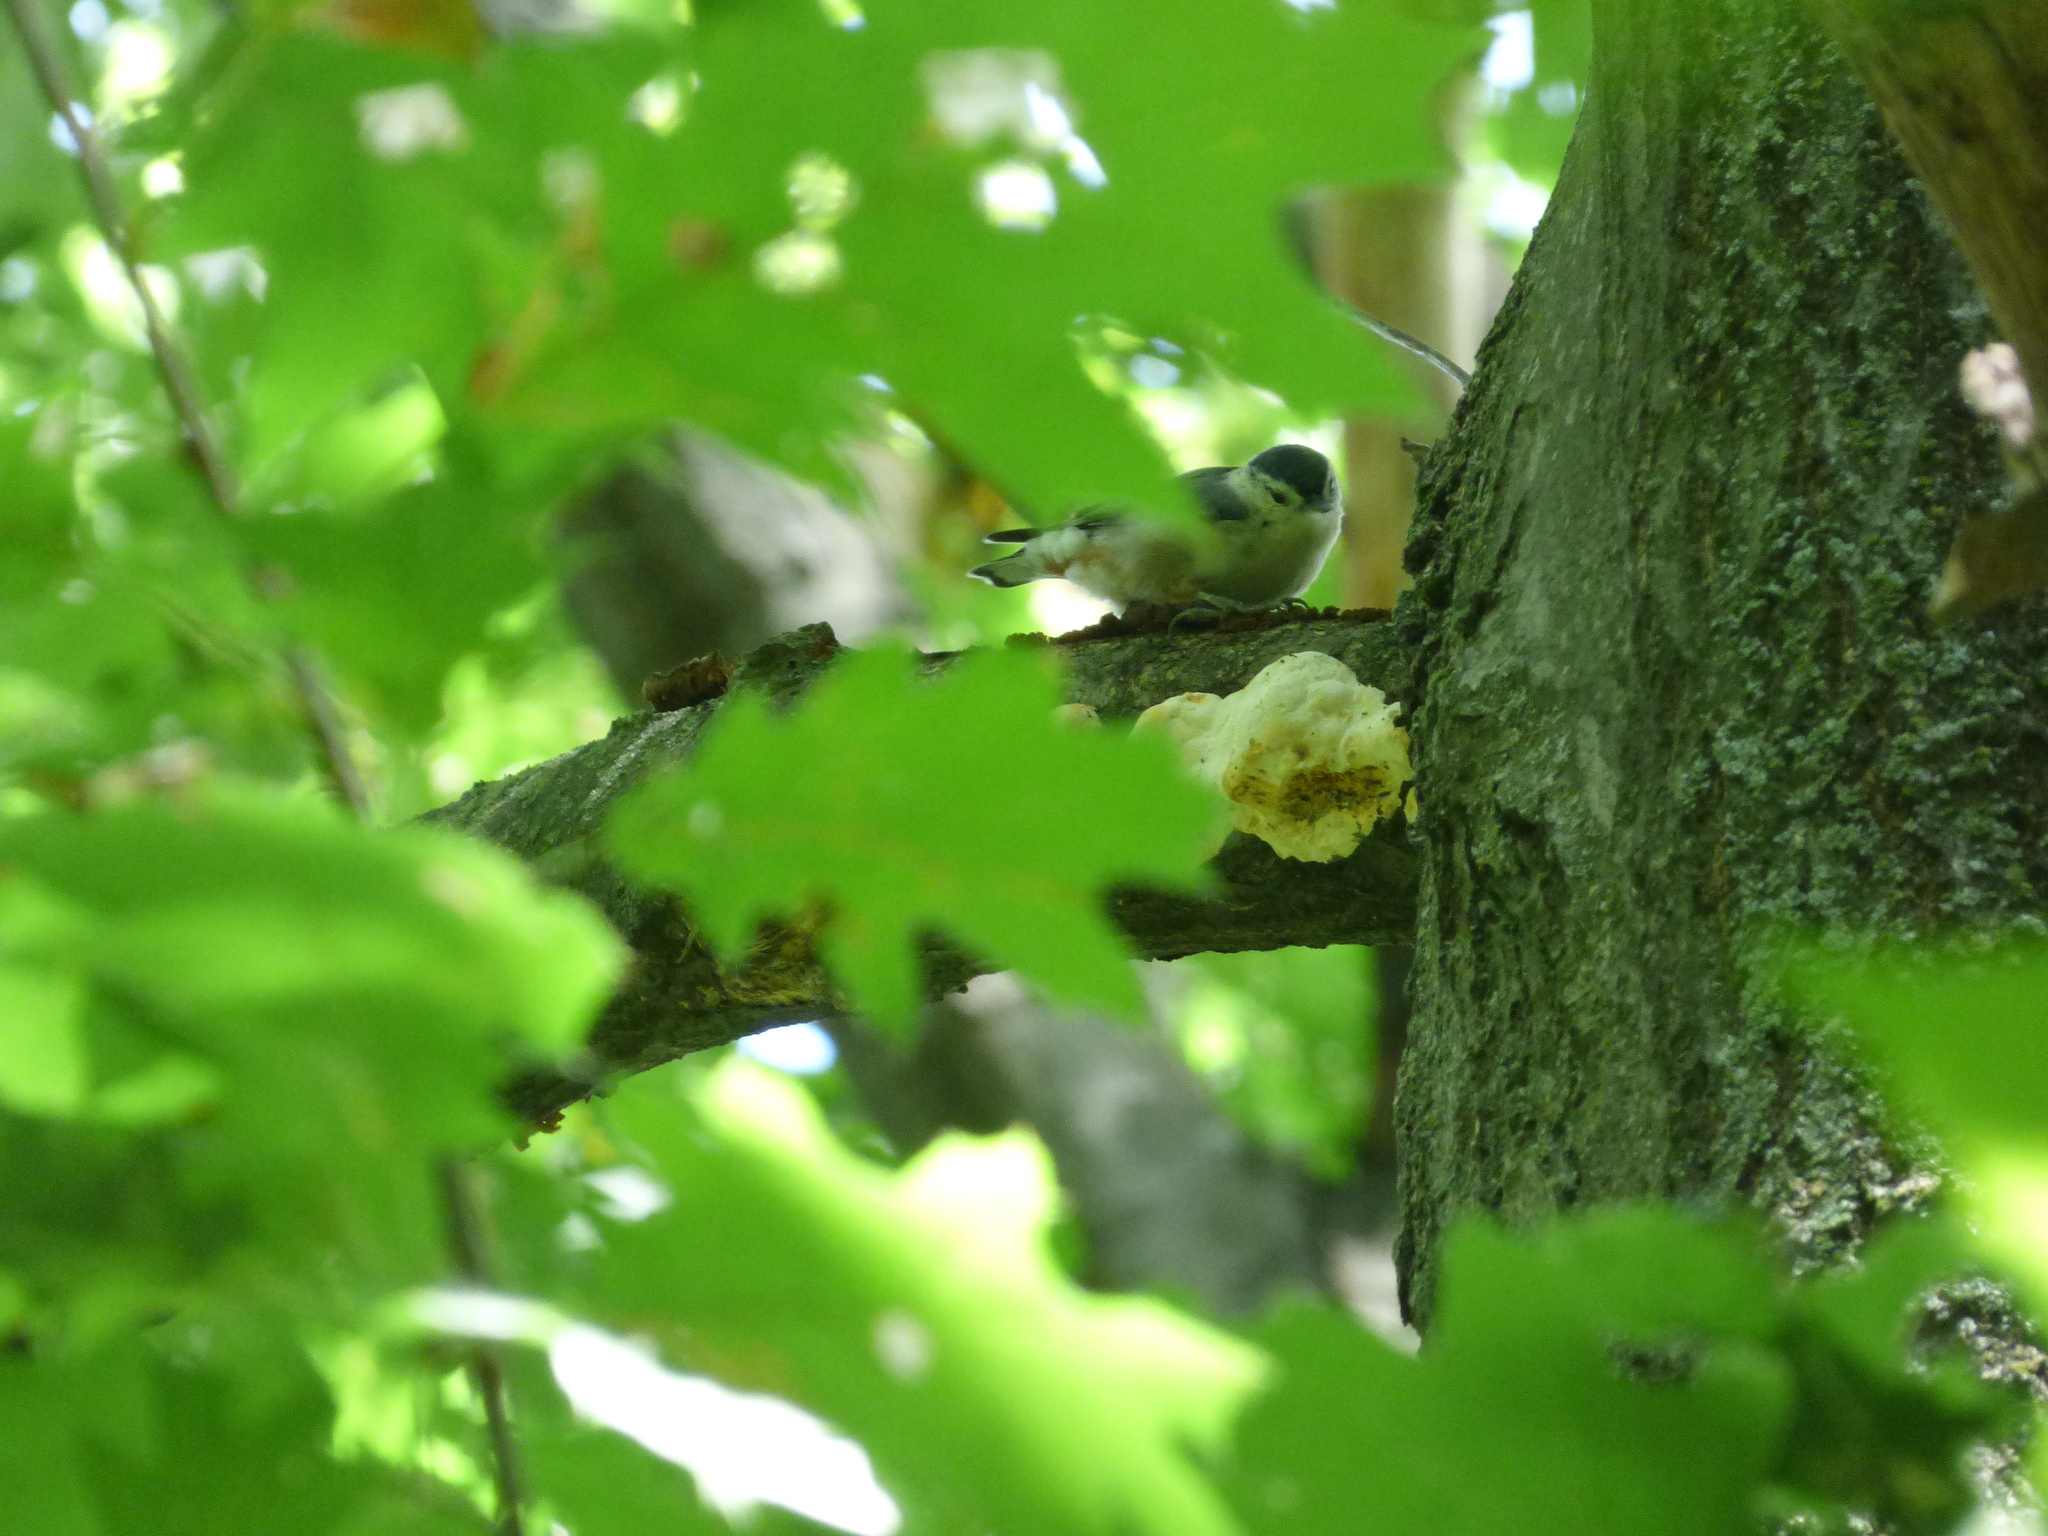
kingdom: Animalia
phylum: Chordata
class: Aves
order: Passeriformes
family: Sittidae
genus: Sitta
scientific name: Sitta carolinensis
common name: White-breasted nuthatch
